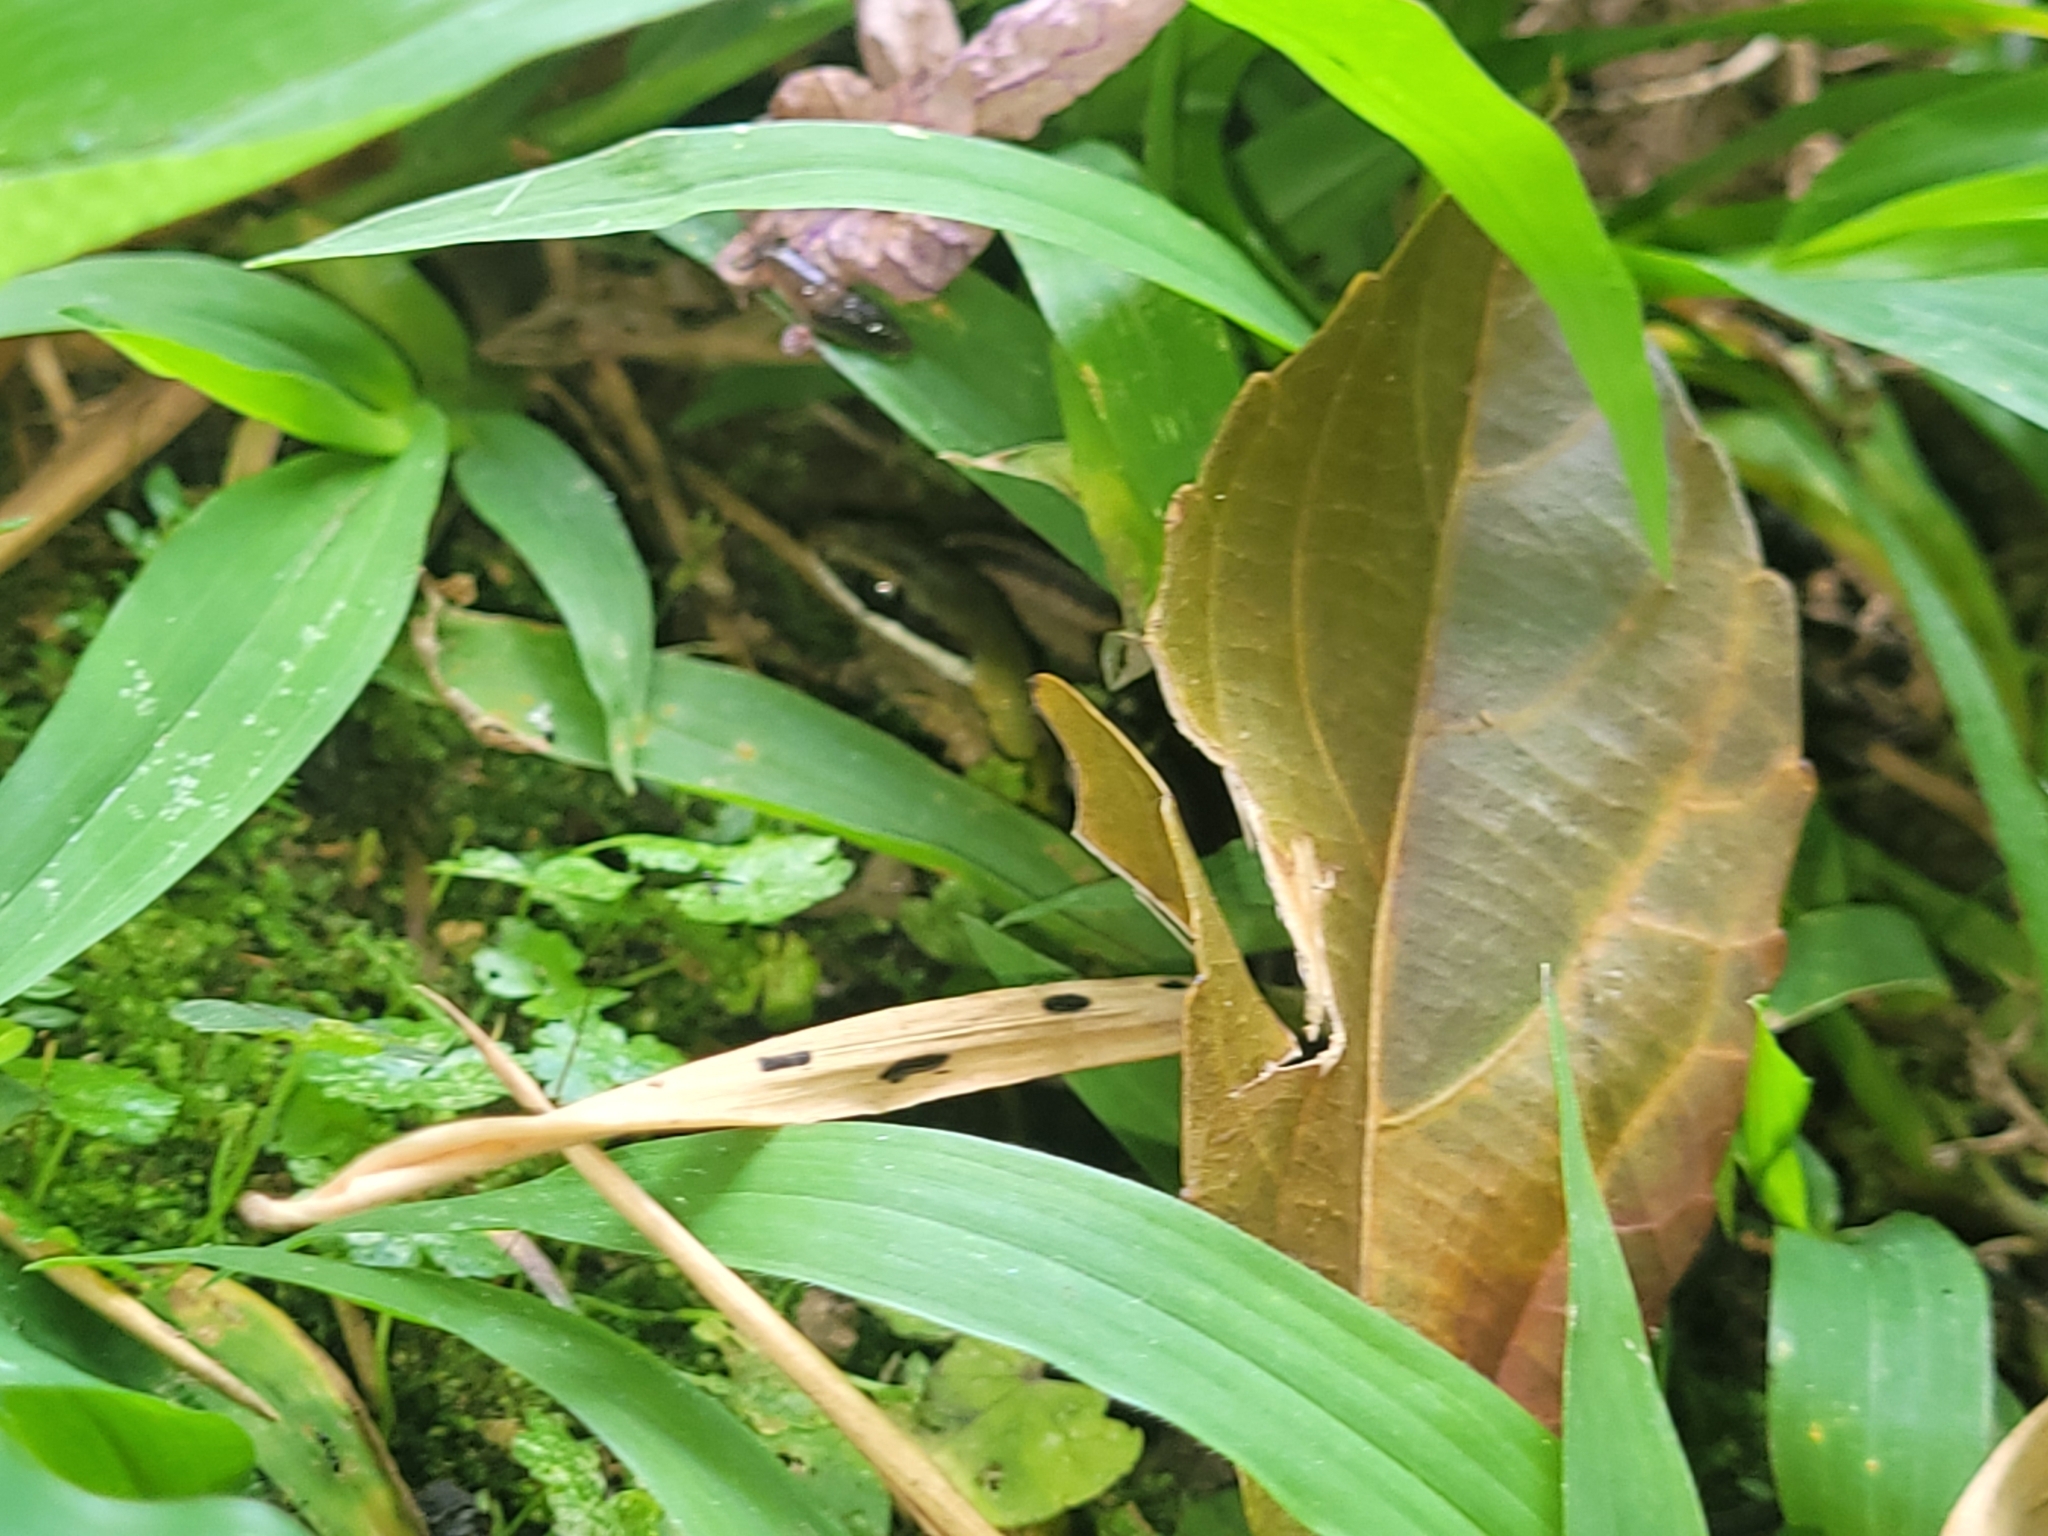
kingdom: Animalia
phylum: Chordata
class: Squamata
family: Colubridae
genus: Dendrophidion
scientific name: Dendrophidion bivittatus
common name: Forest racer
